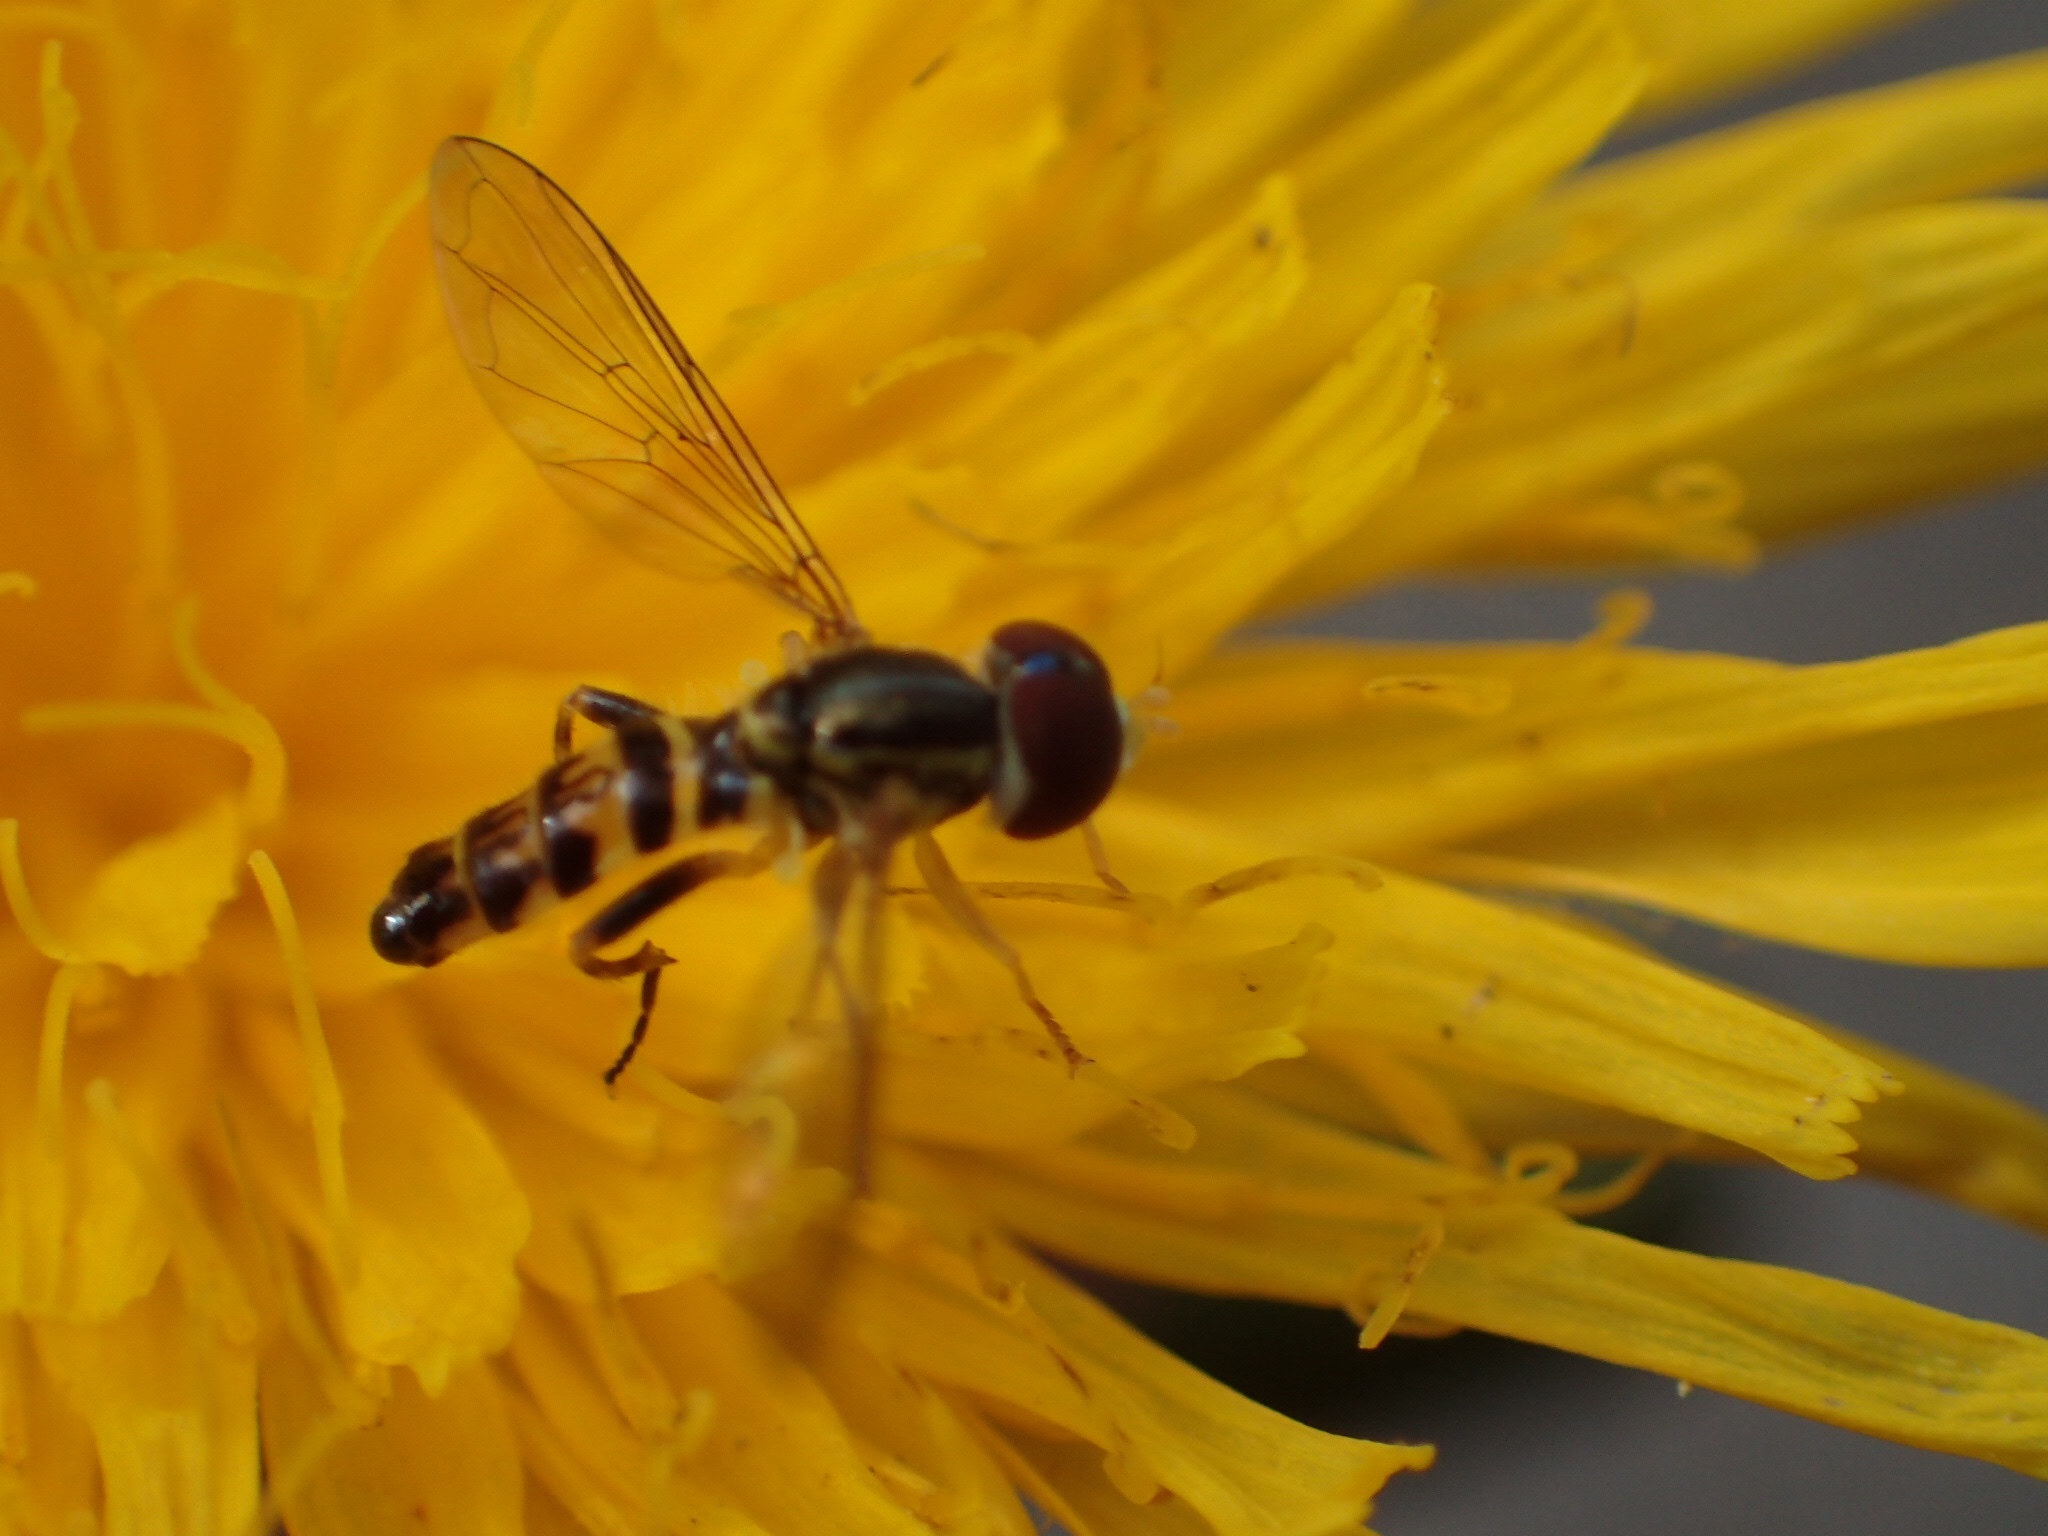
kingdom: Animalia
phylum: Arthropoda
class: Insecta
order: Diptera
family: Syrphidae
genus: Toxomerus
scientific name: Toxomerus geminatus
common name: Eastern calligrapher
